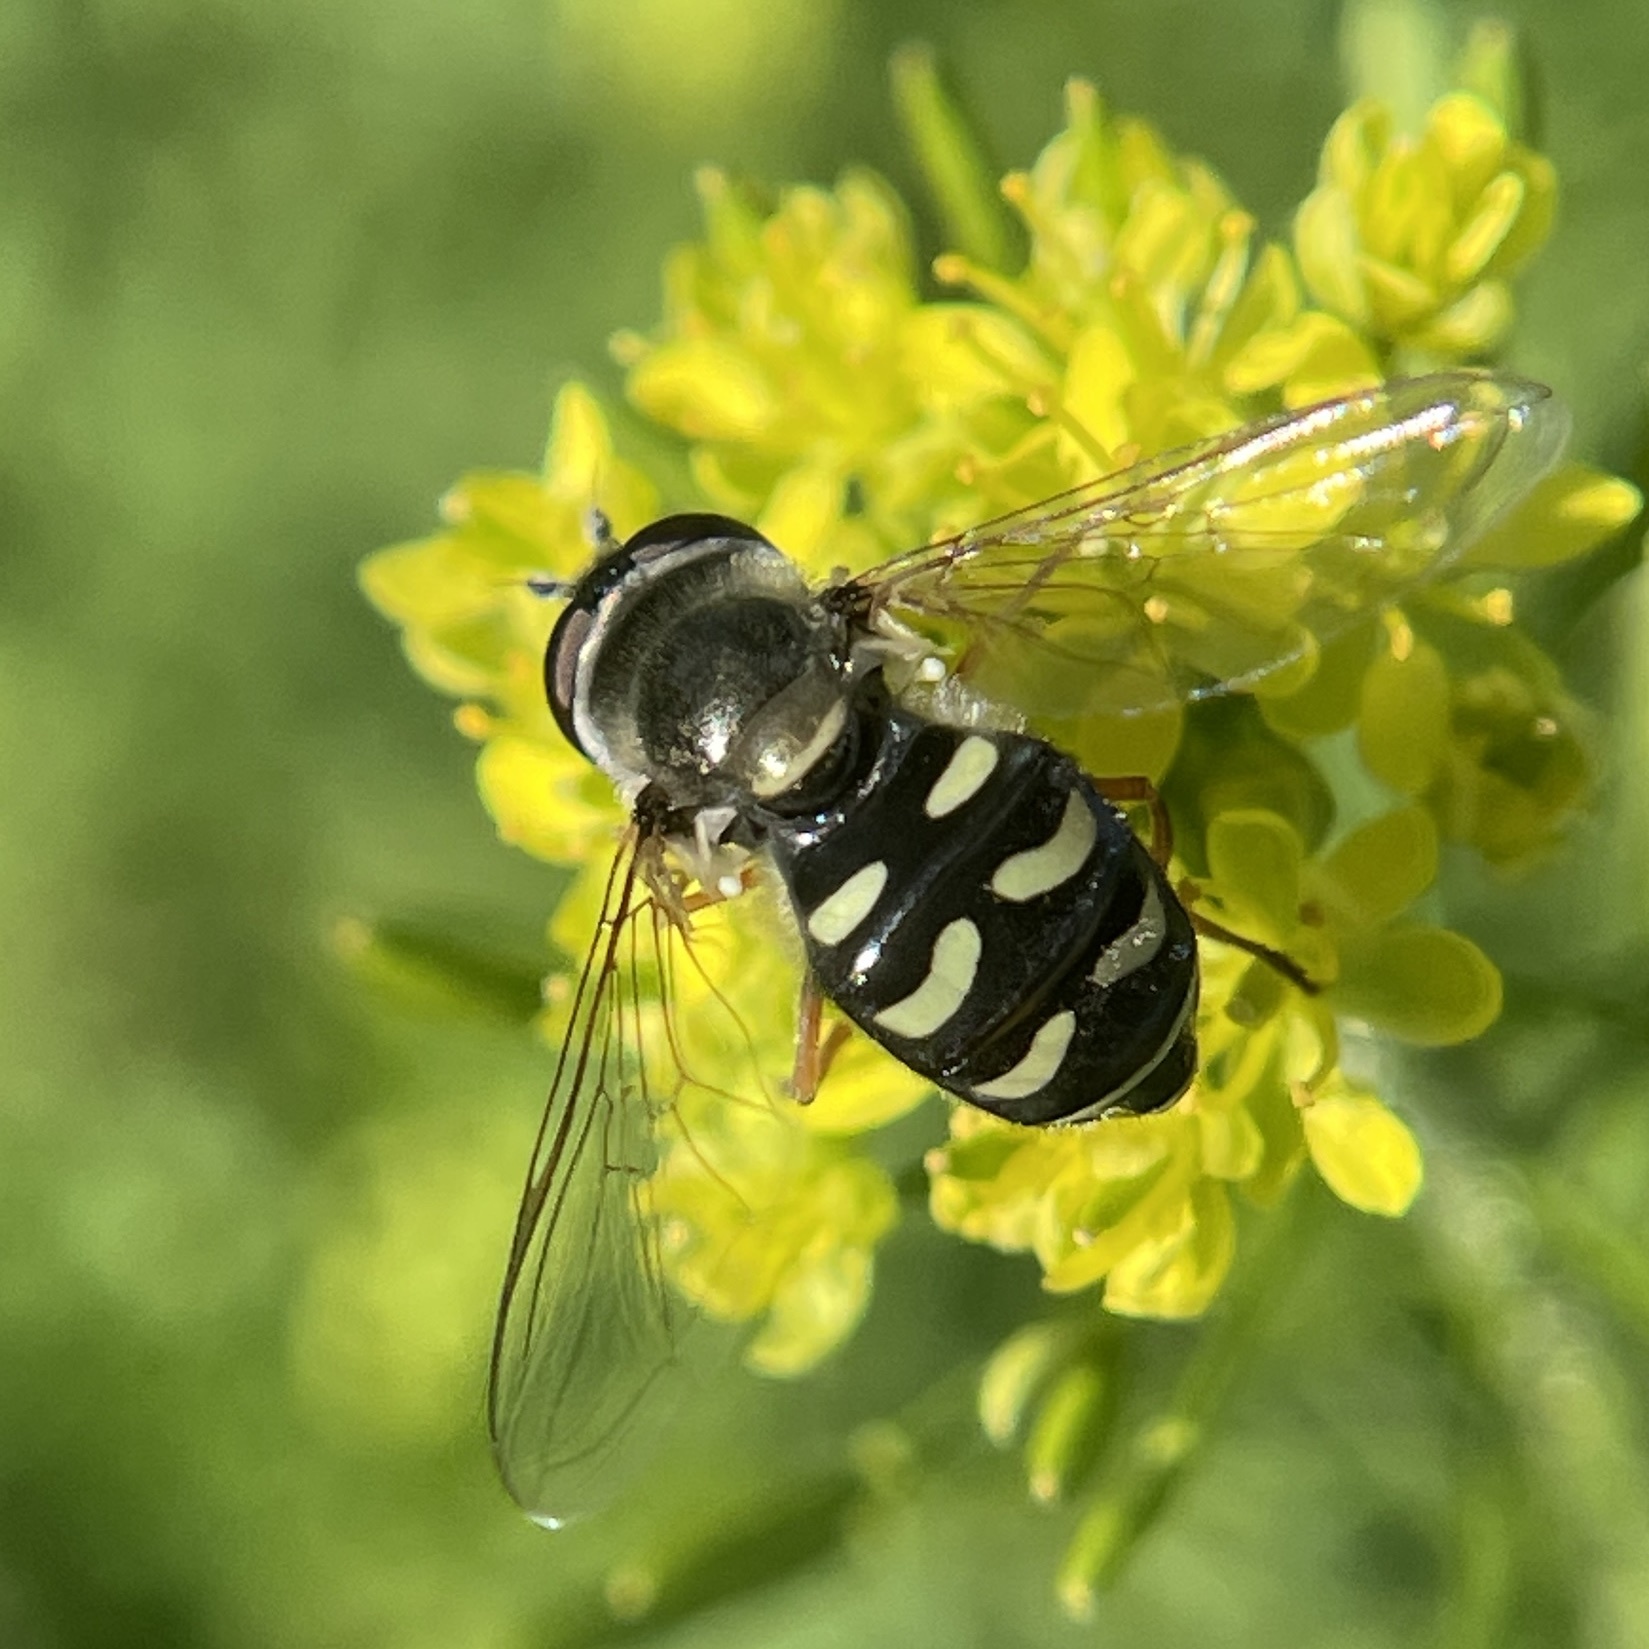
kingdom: Animalia
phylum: Arthropoda
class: Insecta
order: Diptera
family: Syrphidae
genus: Eupeodes
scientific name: Eupeodes volucris
